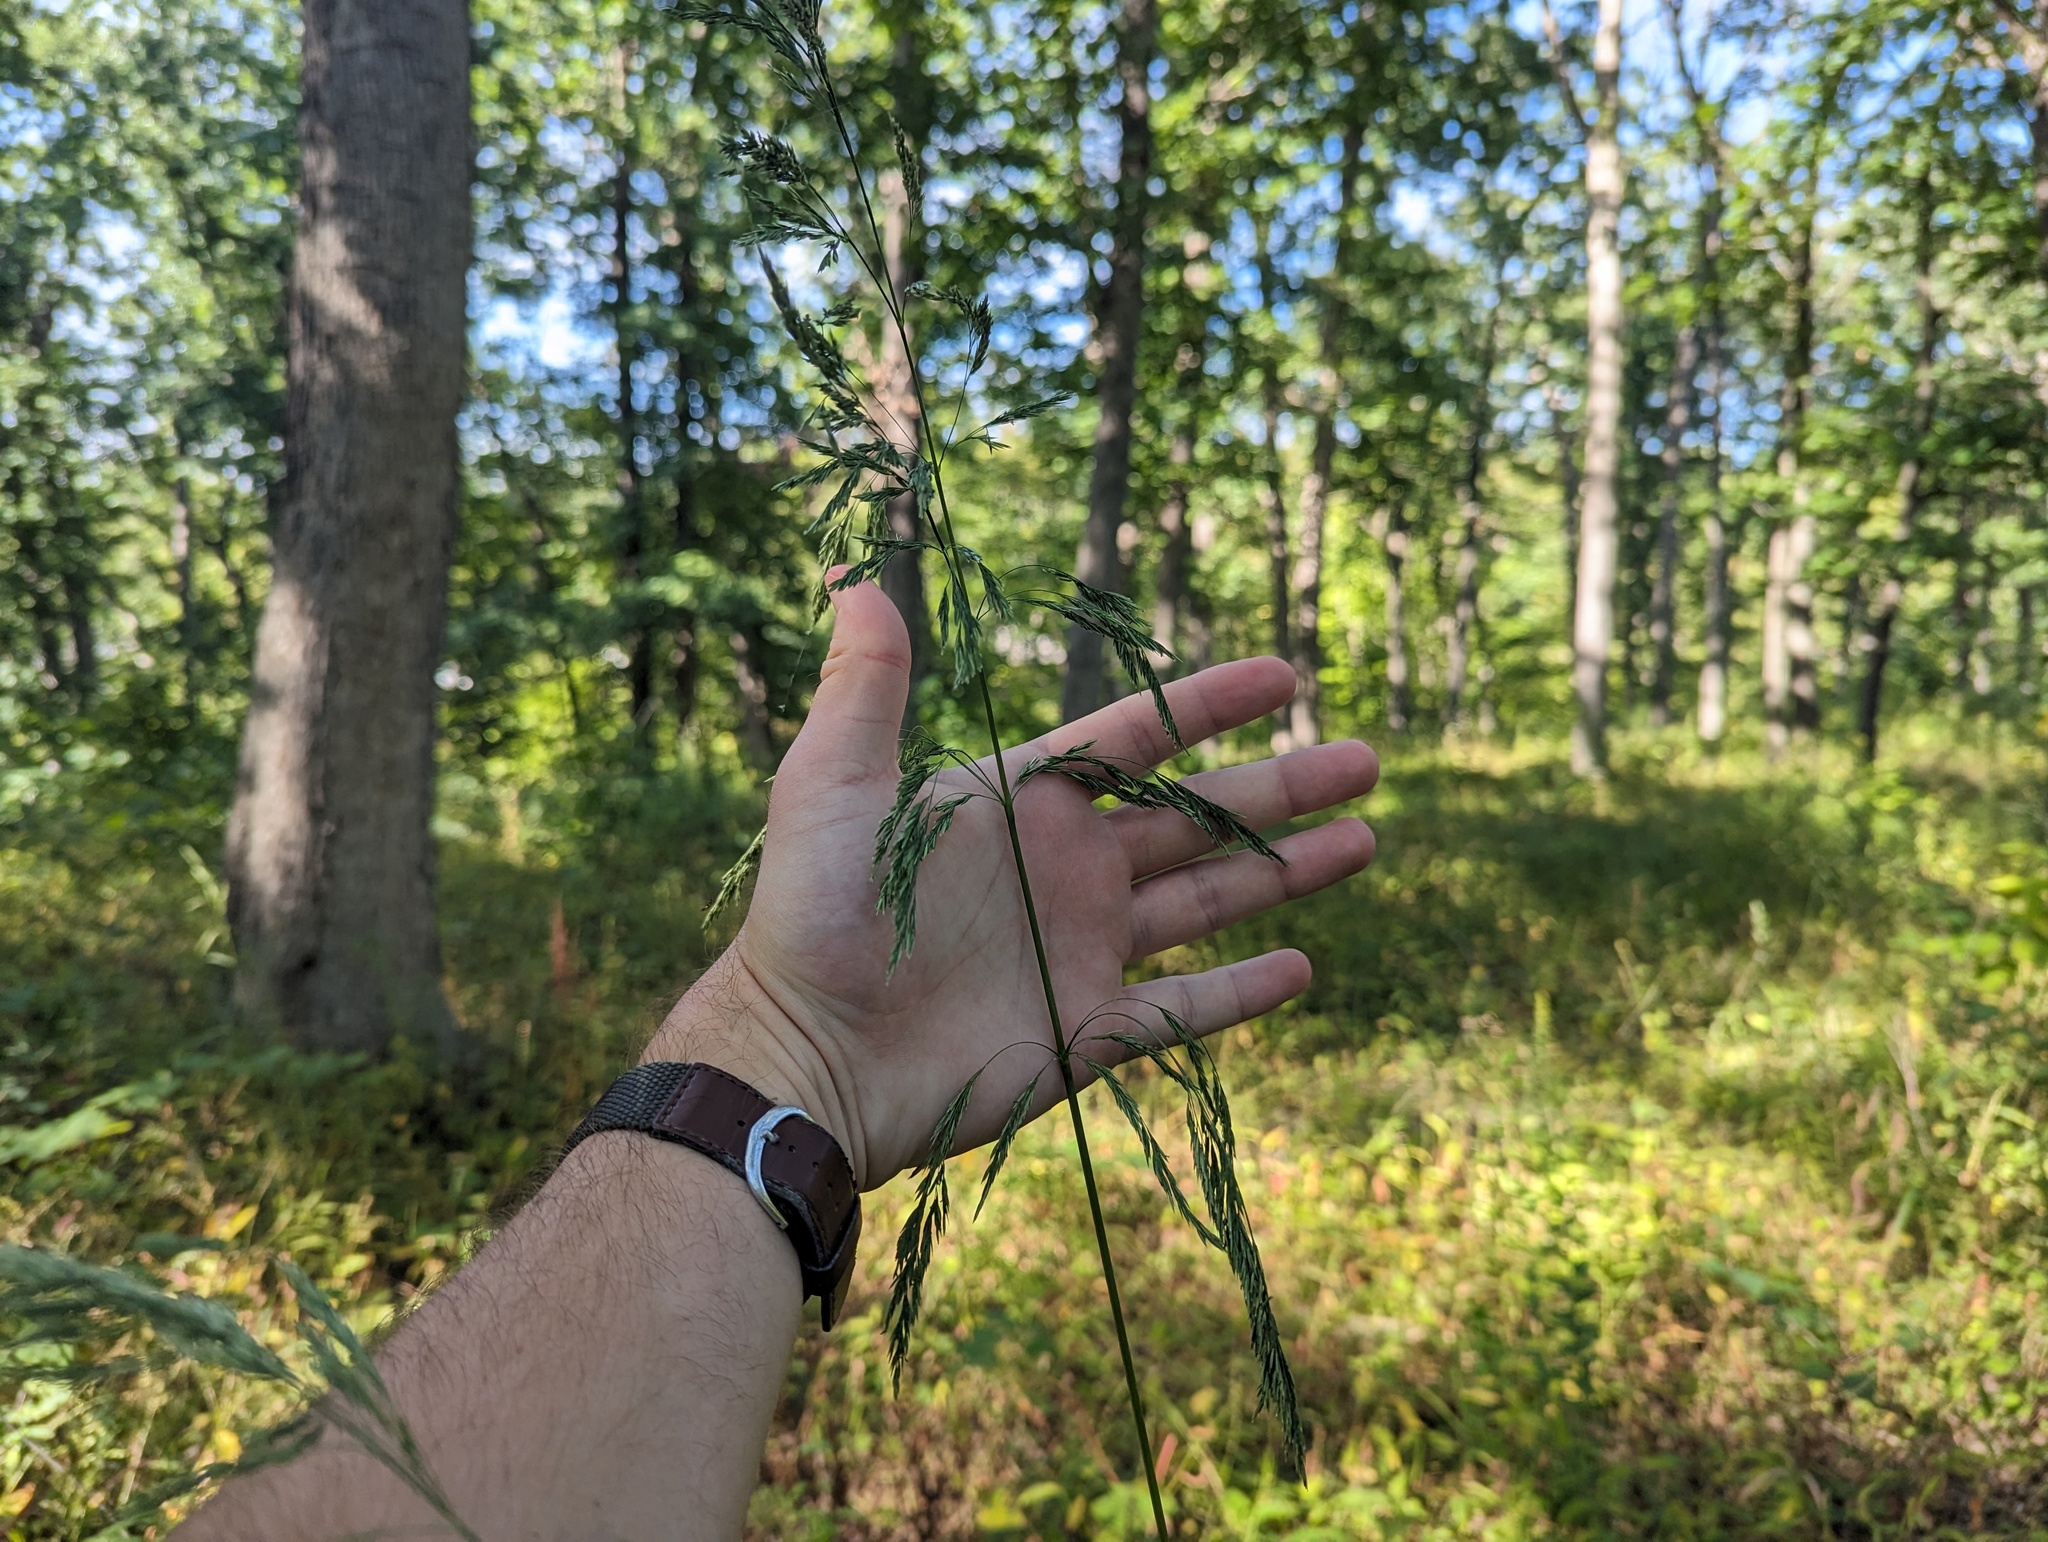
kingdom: Plantae
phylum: Tracheophyta
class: Liliopsida
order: Poales
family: Poaceae
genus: Cinna
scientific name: Cinna arundinacea
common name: Stout woodreed
